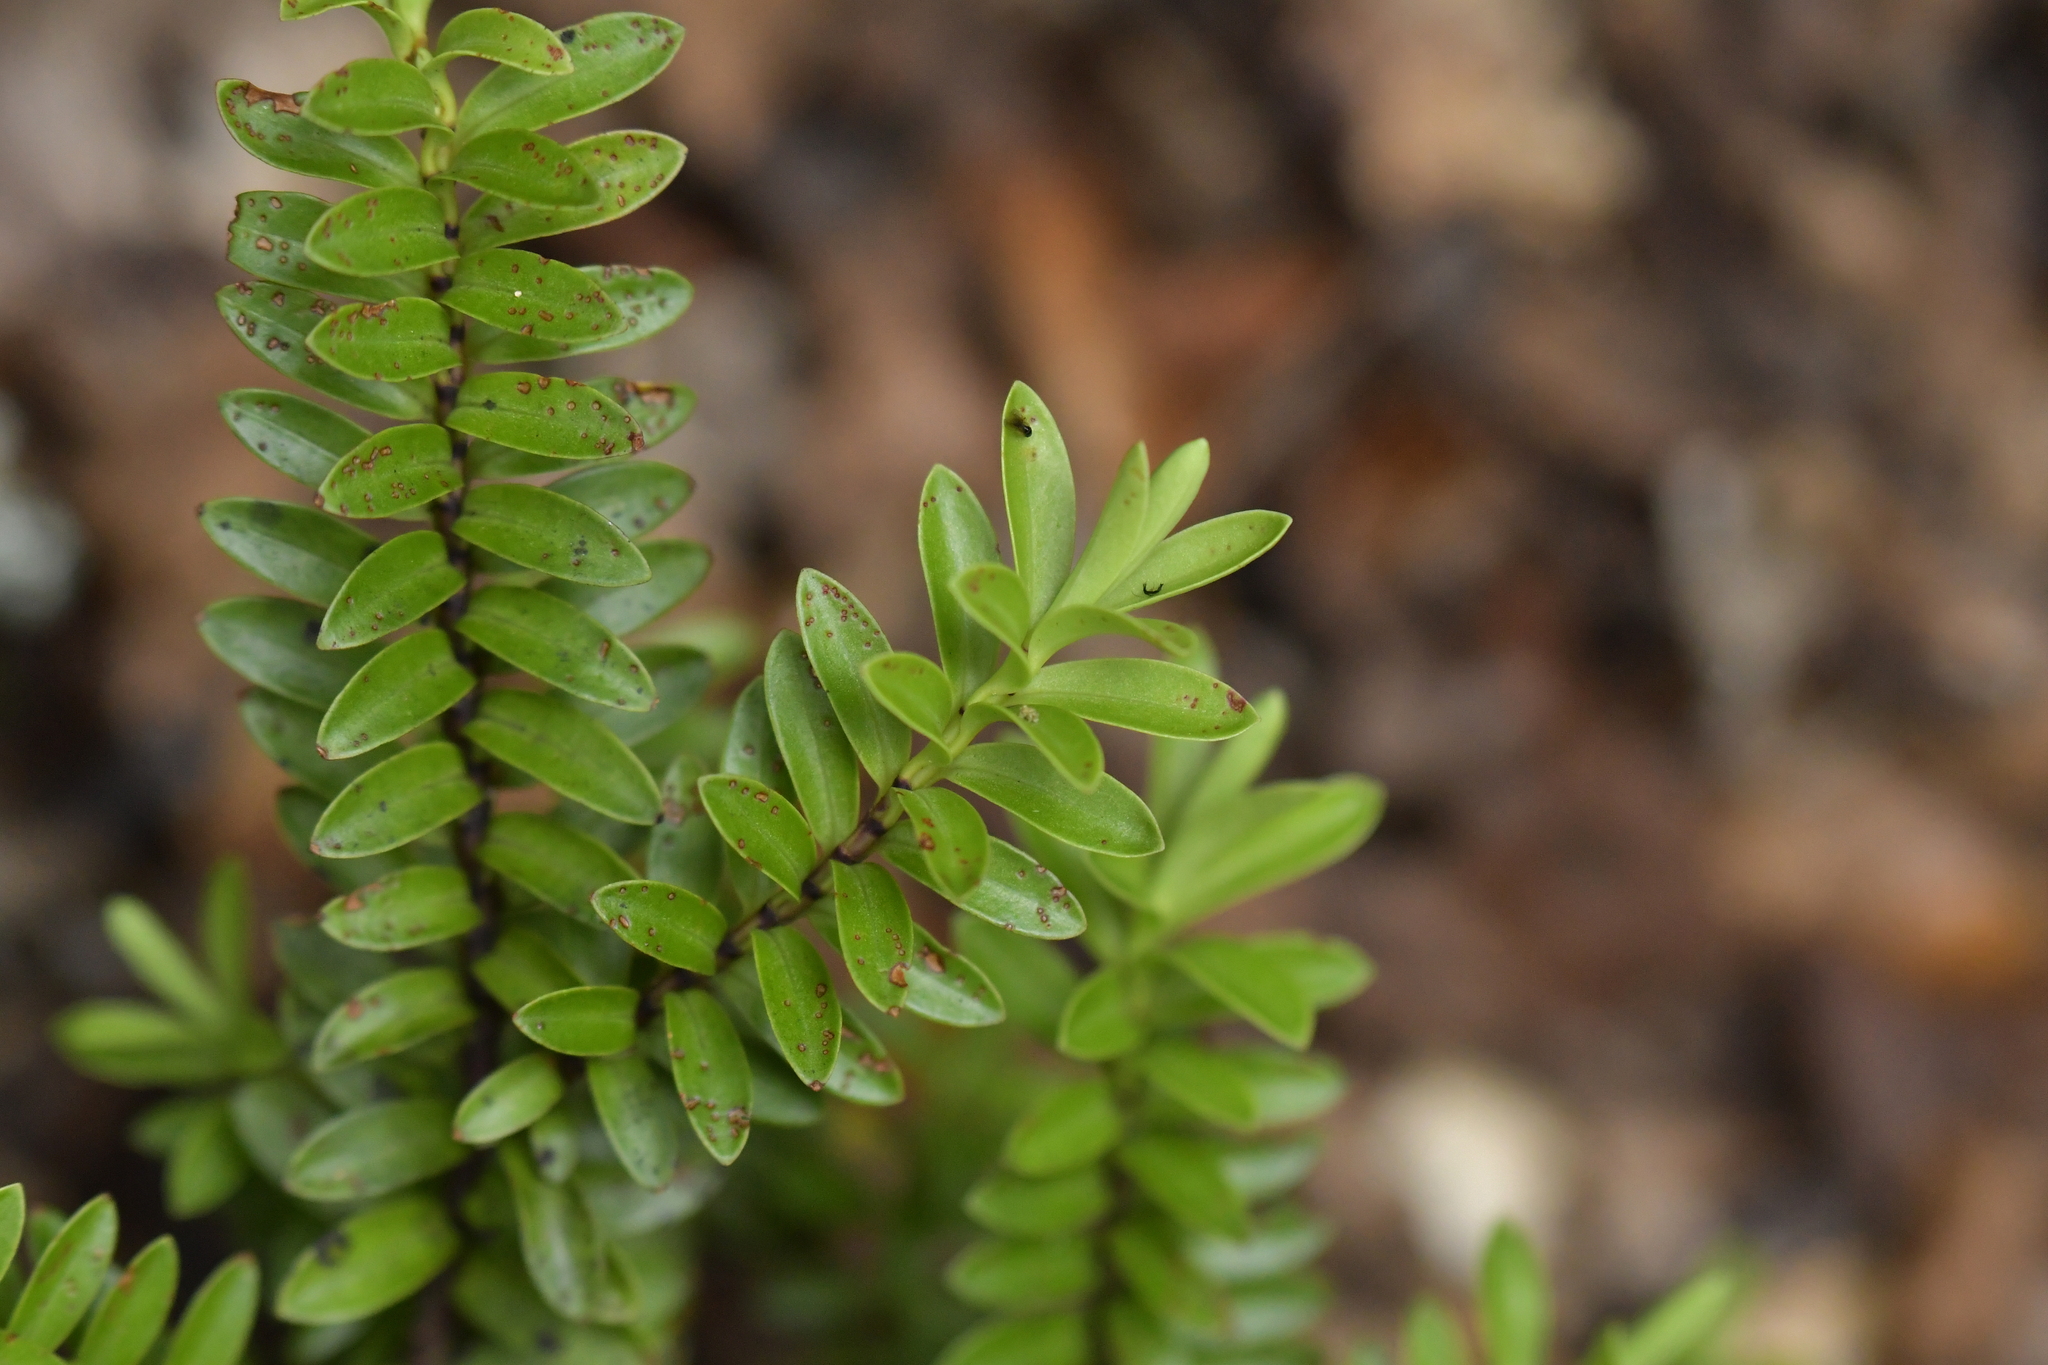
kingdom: Plantae
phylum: Tracheophyta
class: Magnoliopsida
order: Lamiales
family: Plantaginaceae
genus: Veronica
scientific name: Veronica vernicosa
